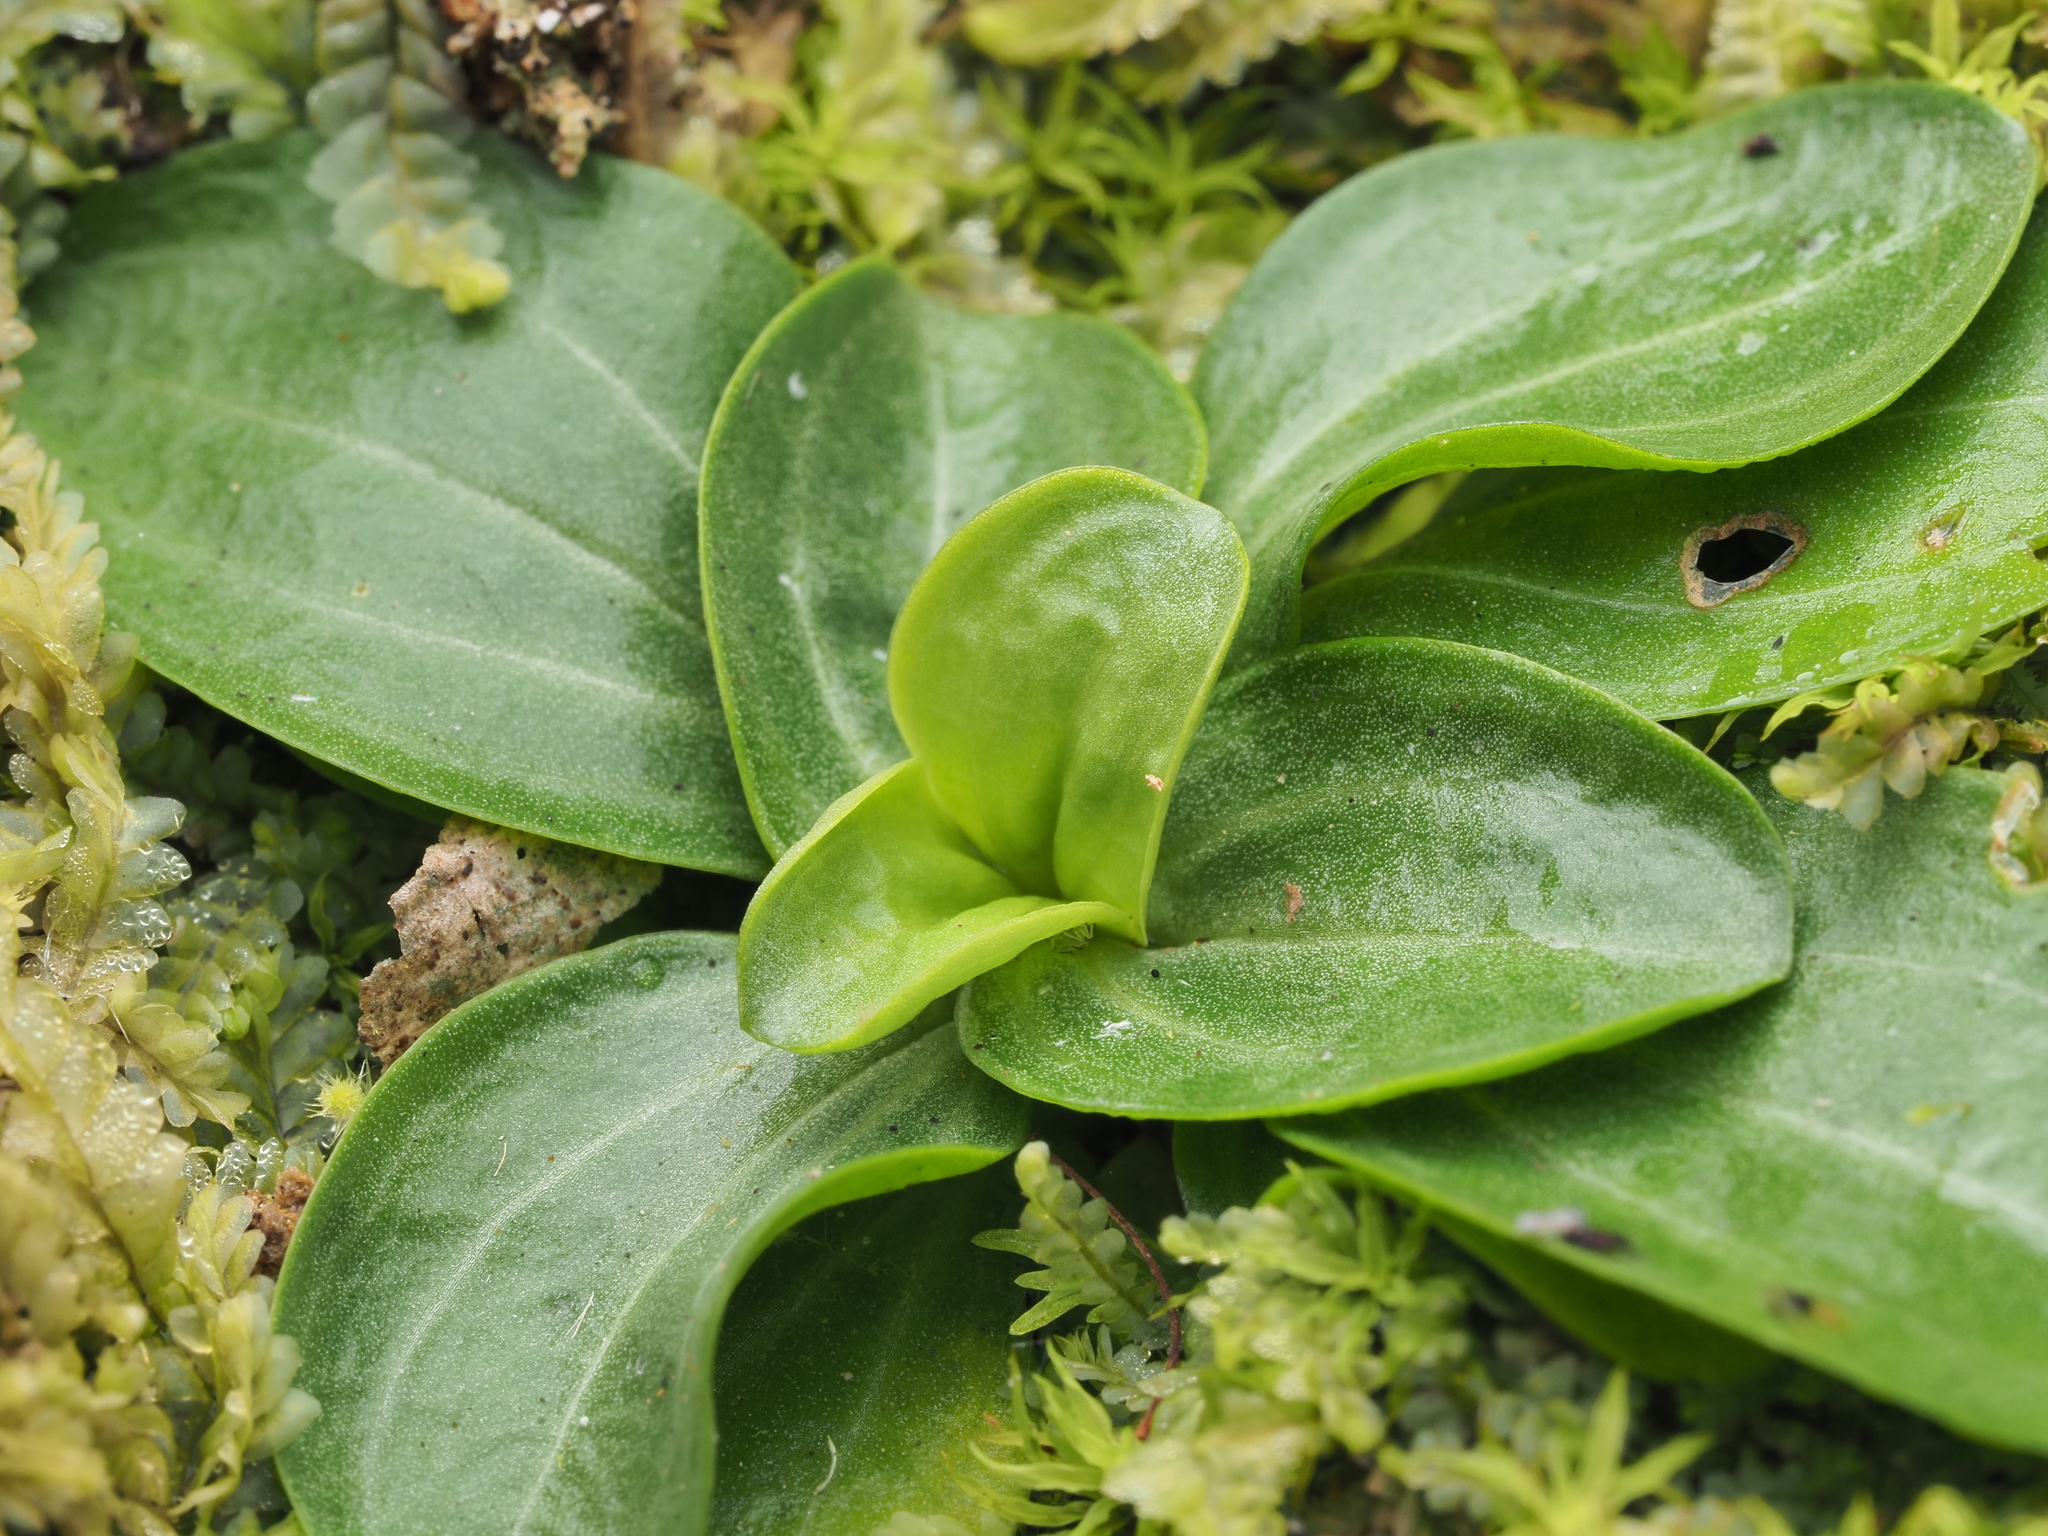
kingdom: Plantae
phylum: Tracheophyta
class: Magnoliopsida
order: Gentianales
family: Gentianaceae
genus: Centaurium
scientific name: Centaurium erythraea
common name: Common centaury
